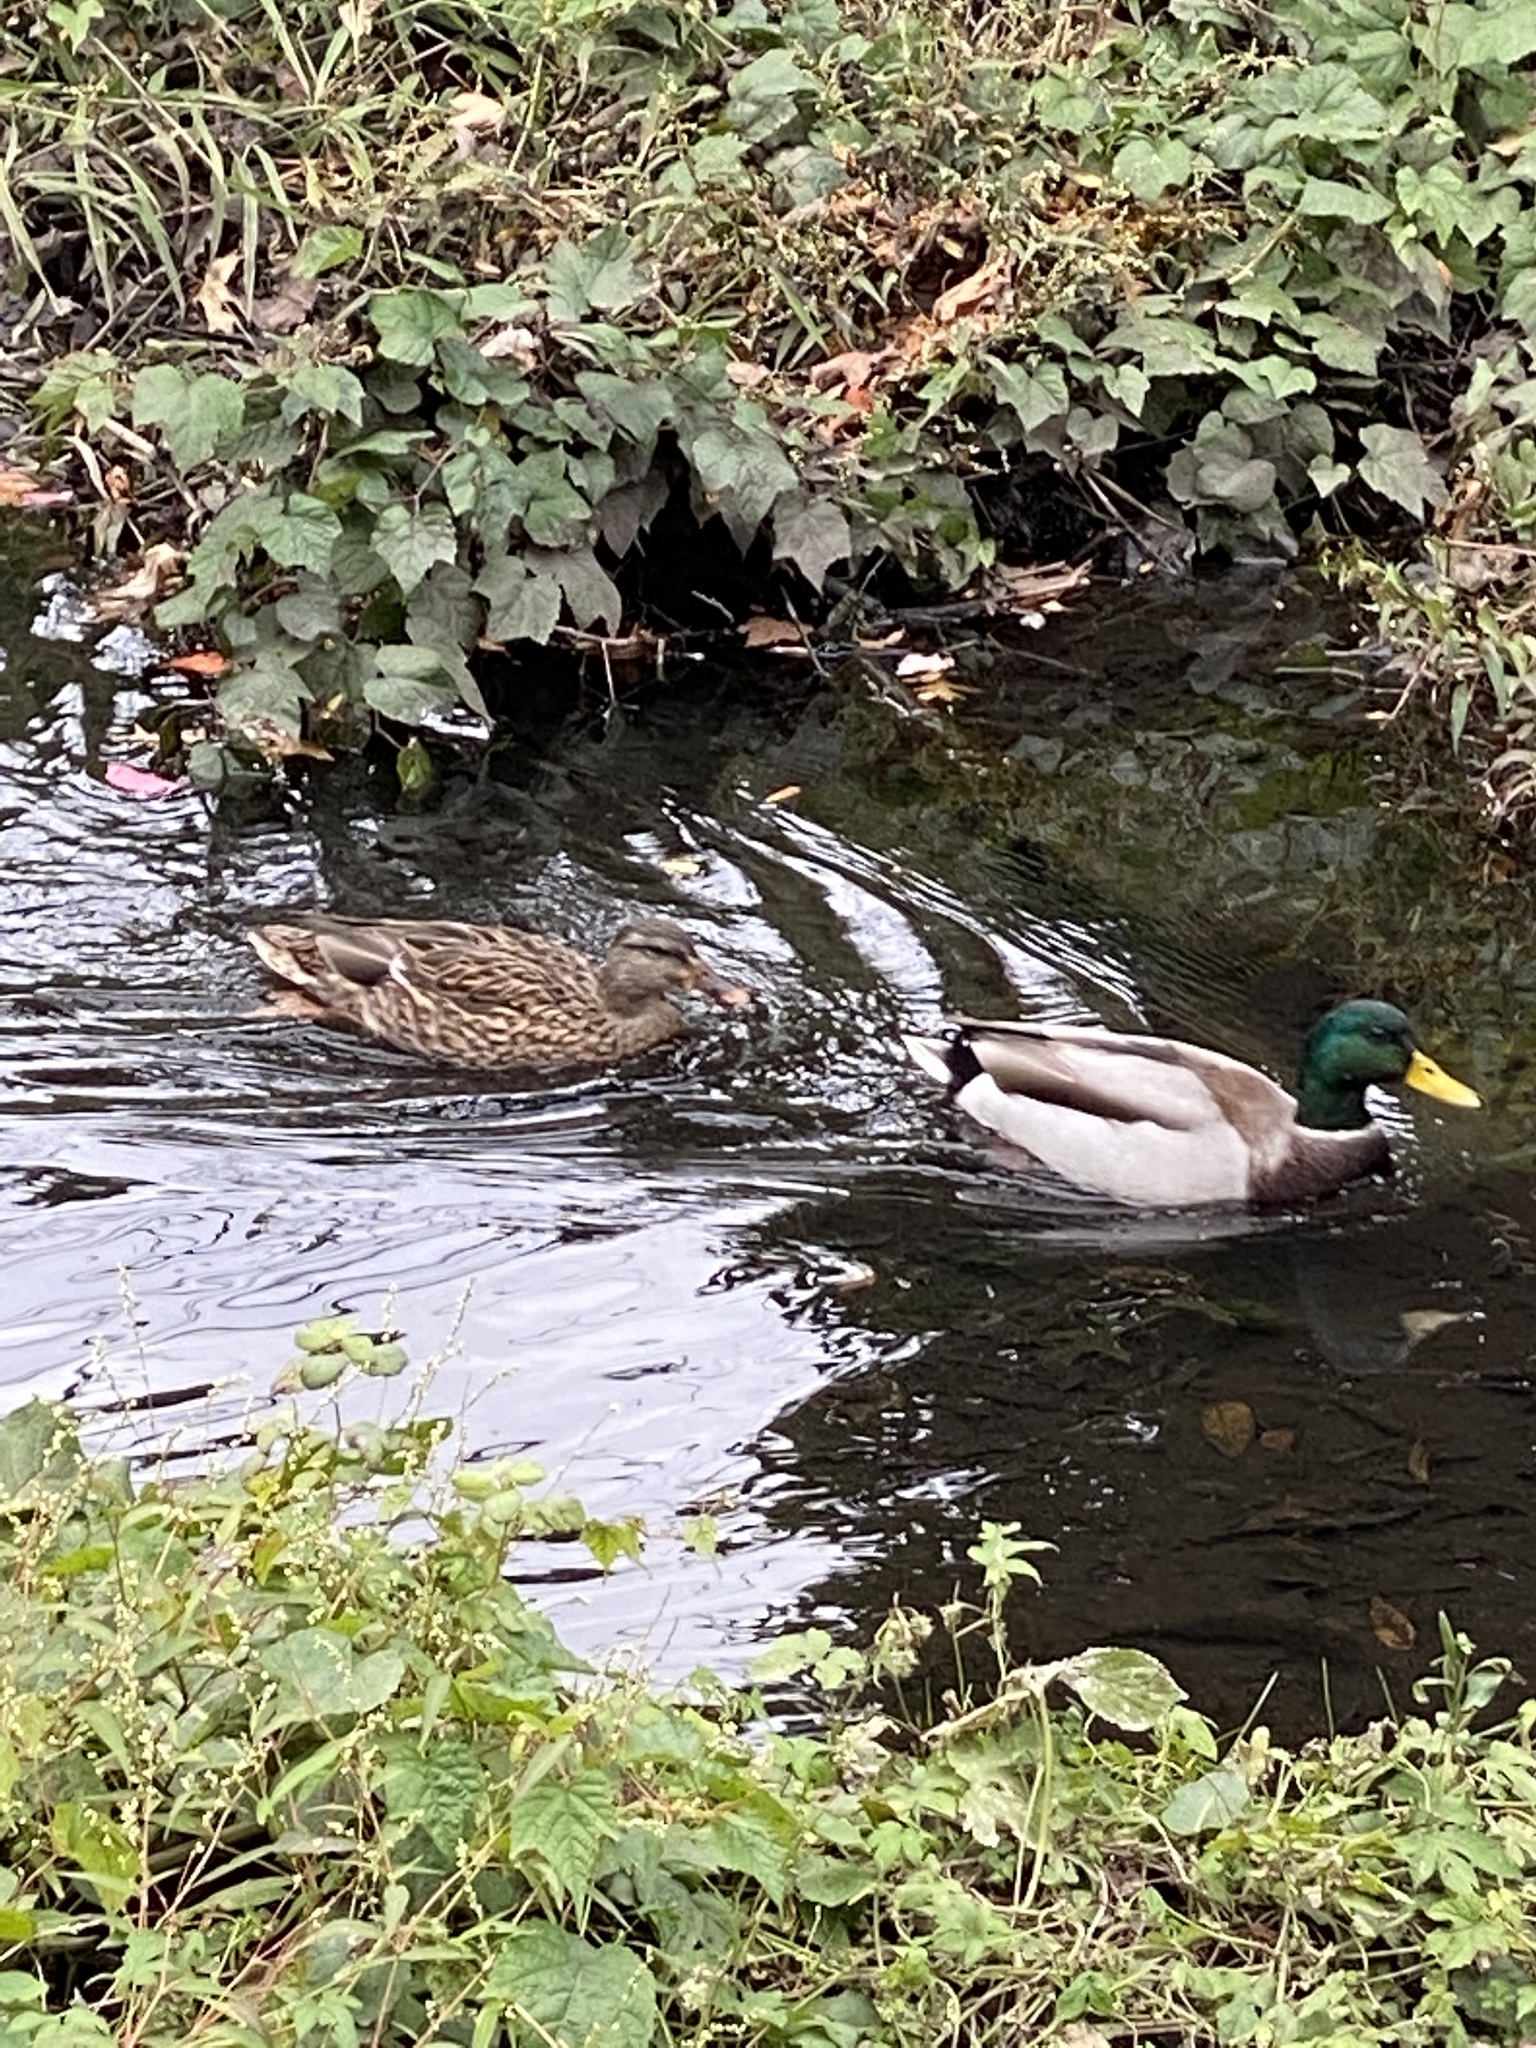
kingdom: Animalia
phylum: Chordata
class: Aves
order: Anseriformes
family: Anatidae
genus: Anas
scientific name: Anas platyrhynchos
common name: Mallard
